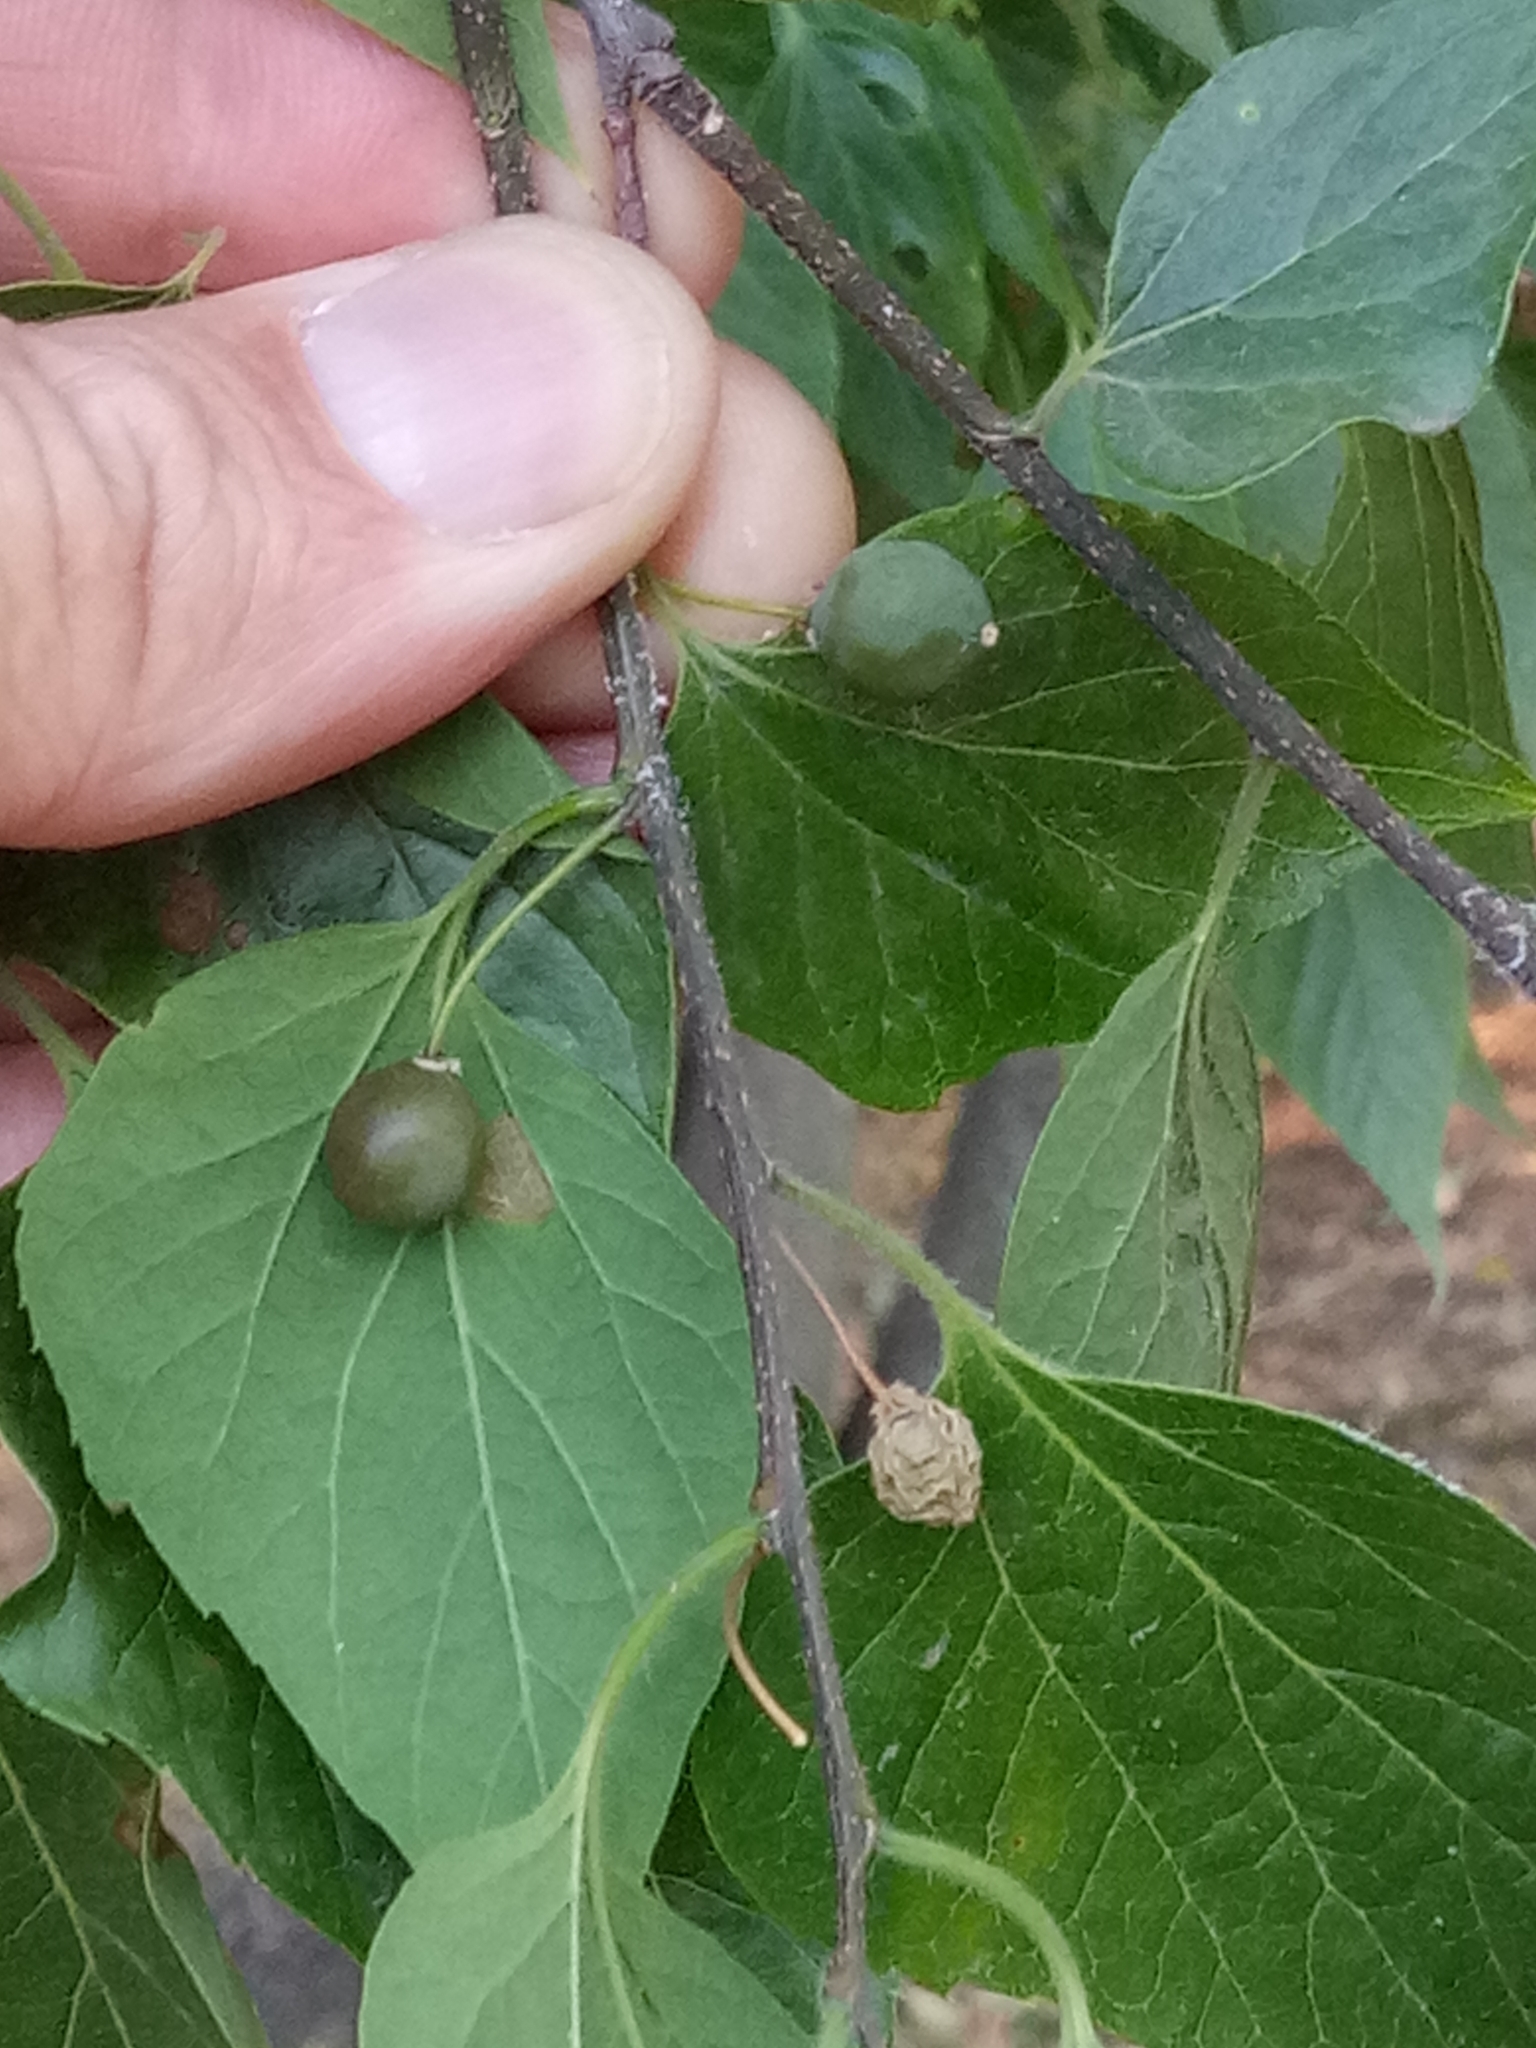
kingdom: Plantae
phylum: Tracheophyta
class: Magnoliopsida
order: Rosales
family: Cannabaceae
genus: Celtis
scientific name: Celtis occidentalis
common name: Common hackberry
